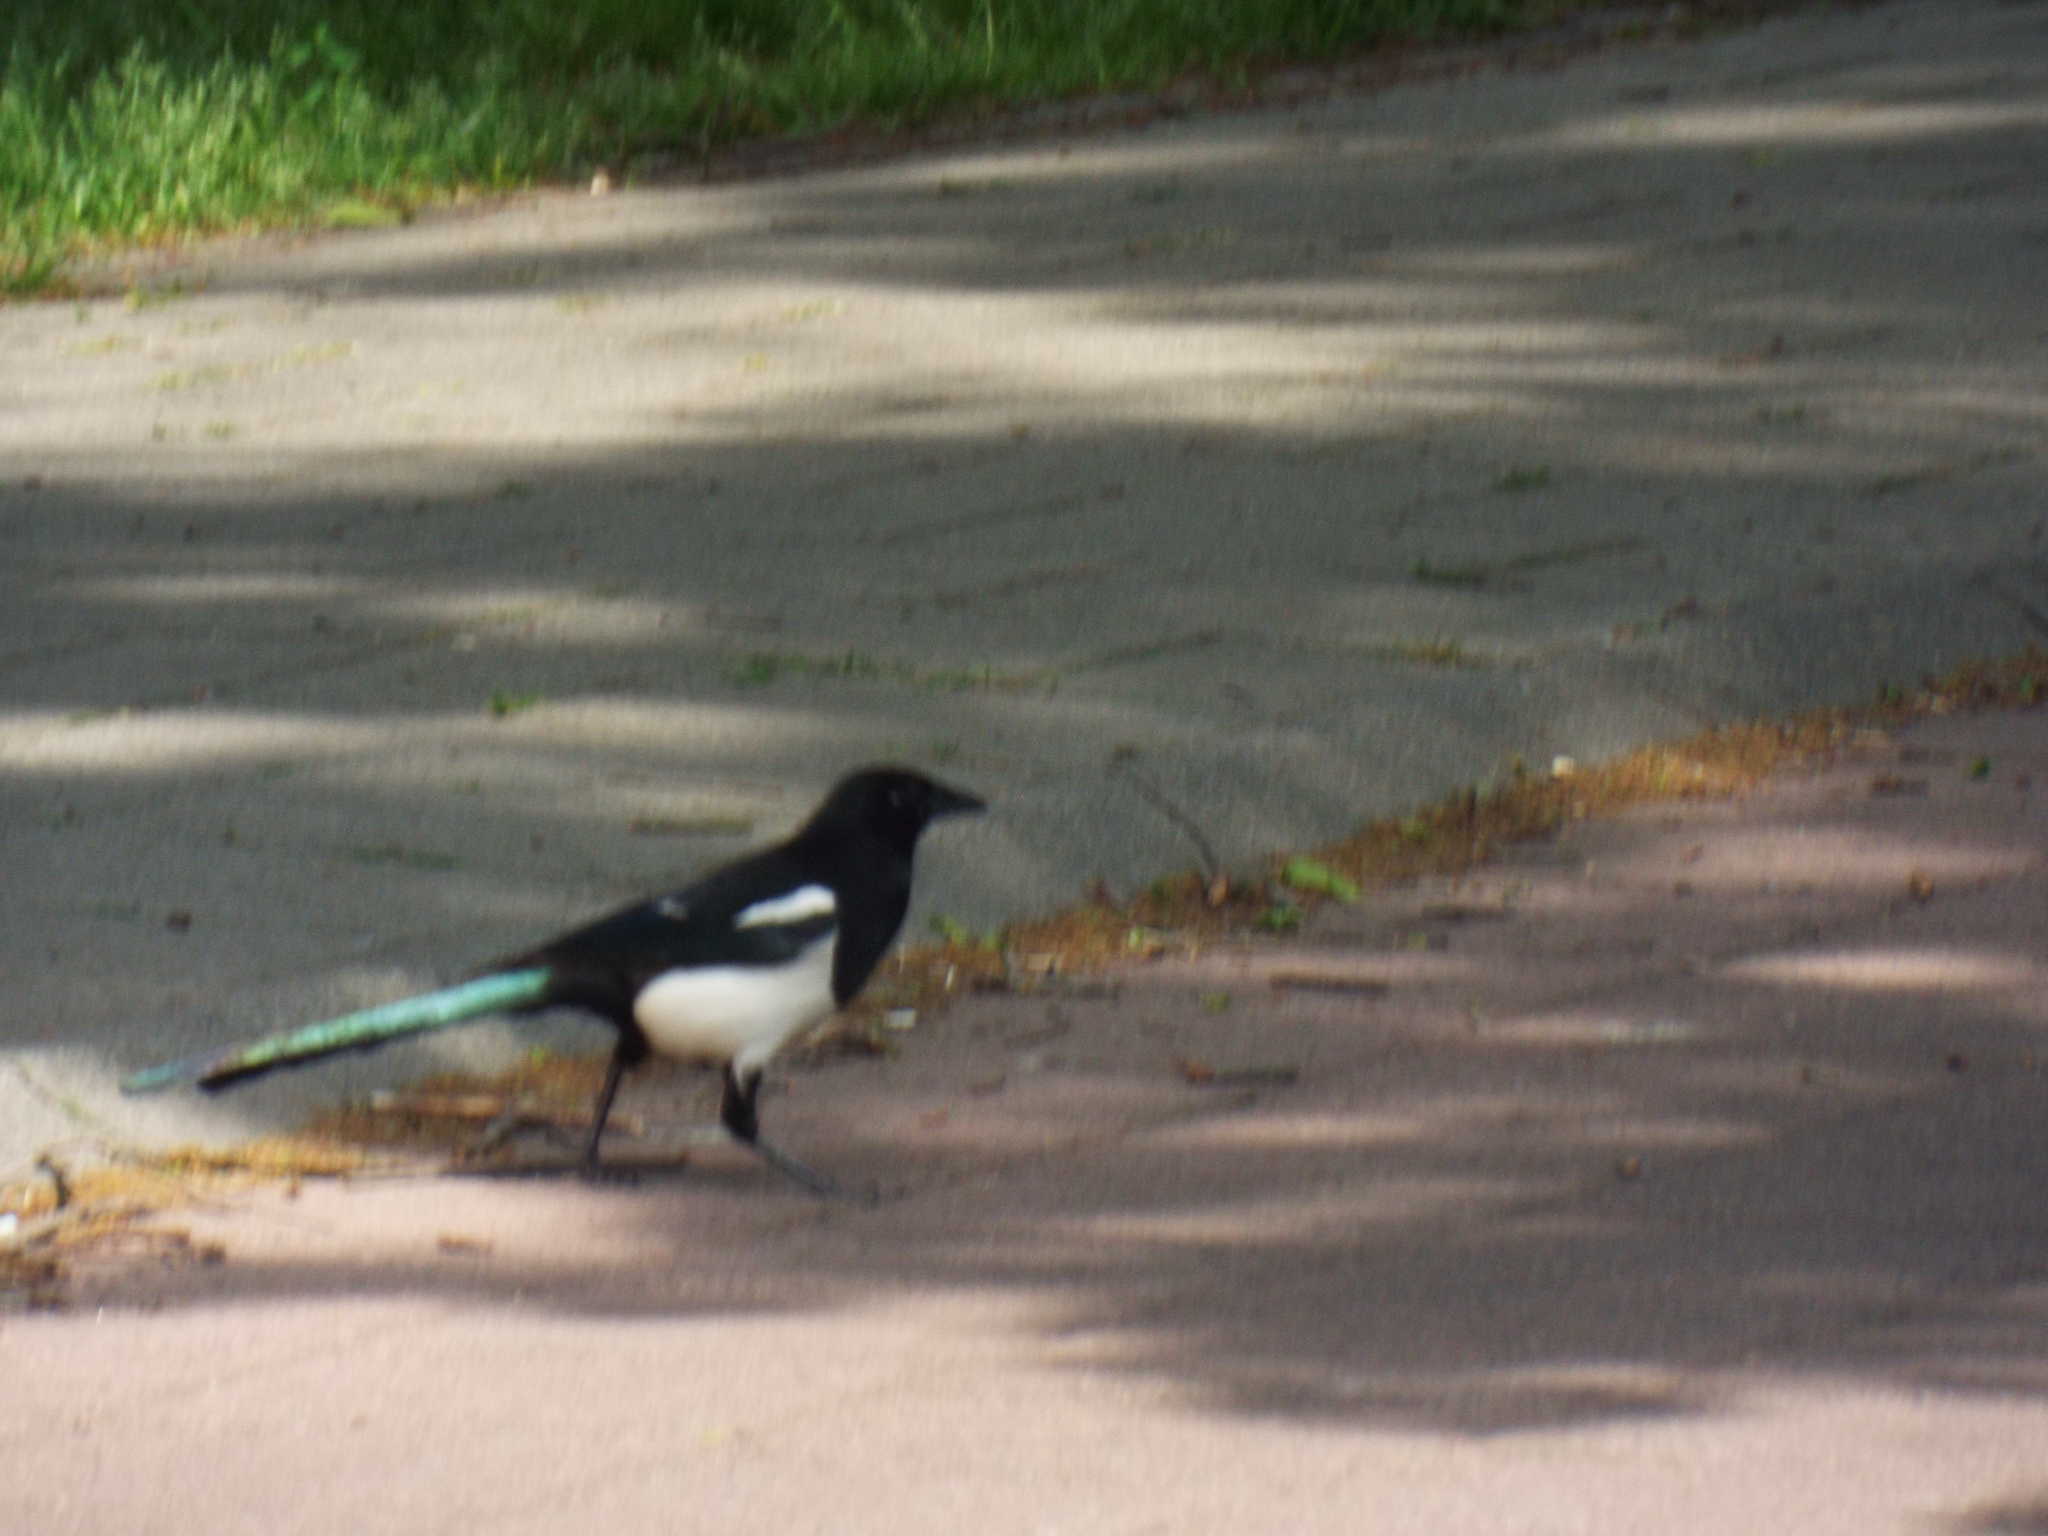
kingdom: Animalia
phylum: Chordata
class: Aves
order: Passeriformes
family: Corvidae
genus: Pica
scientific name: Pica pica
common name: Eurasian magpie
